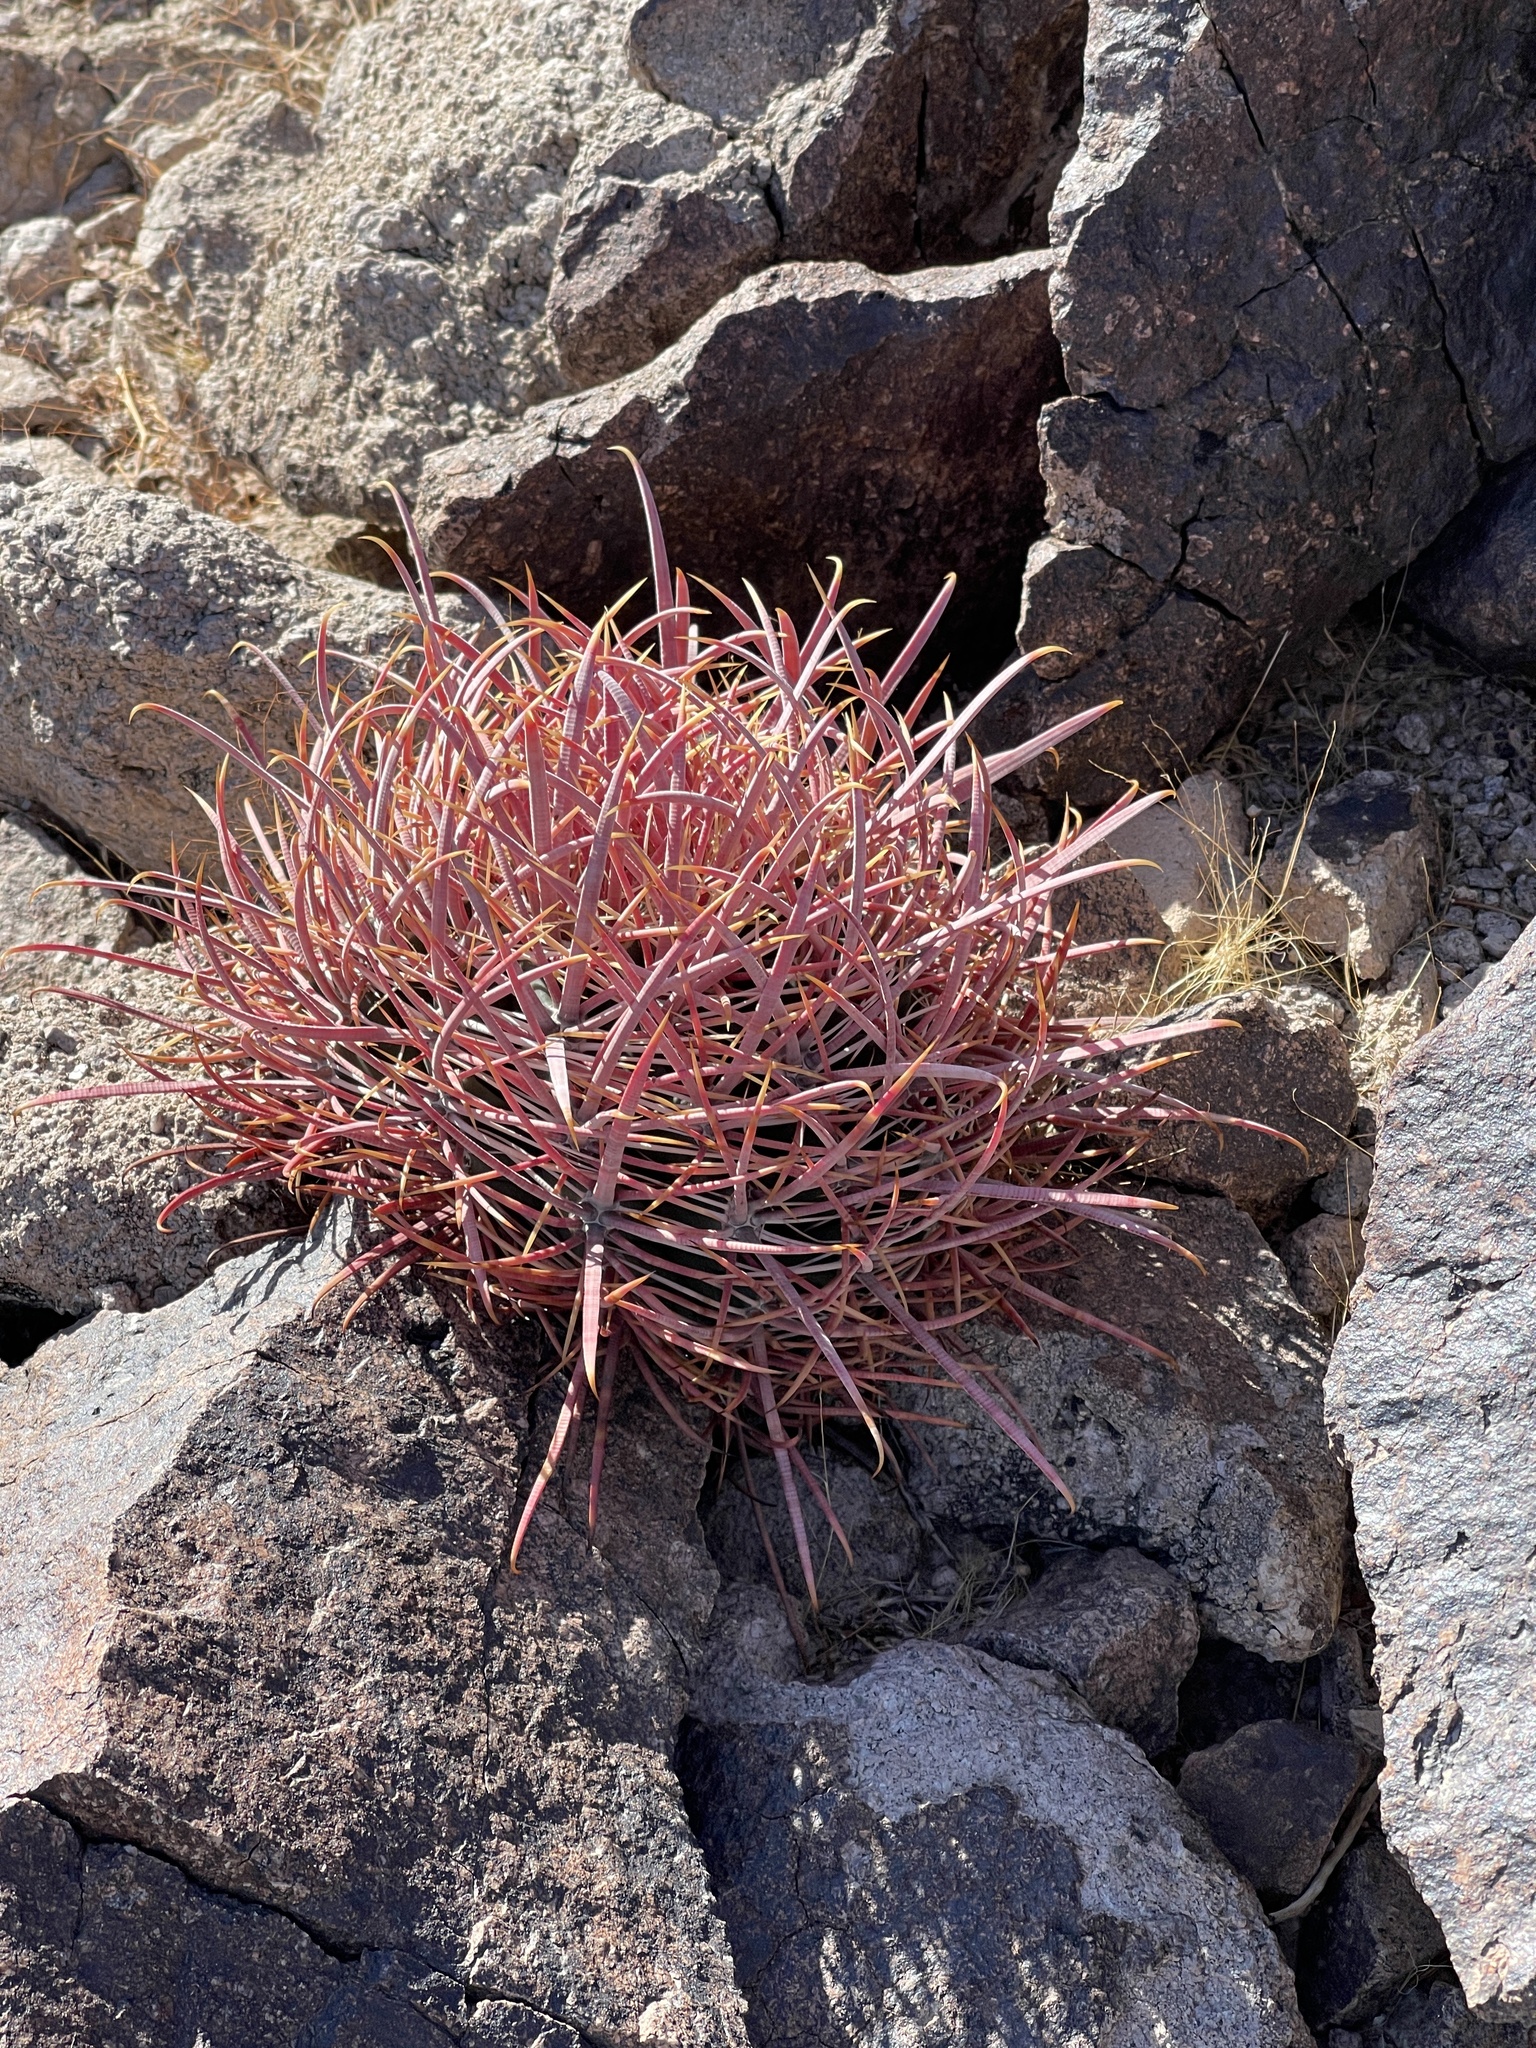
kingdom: Plantae
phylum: Tracheophyta
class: Magnoliopsida
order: Caryophyllales
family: Cactaceae
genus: Ferocactus
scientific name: Ferocactus cylindraceus
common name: California barrel cactus
